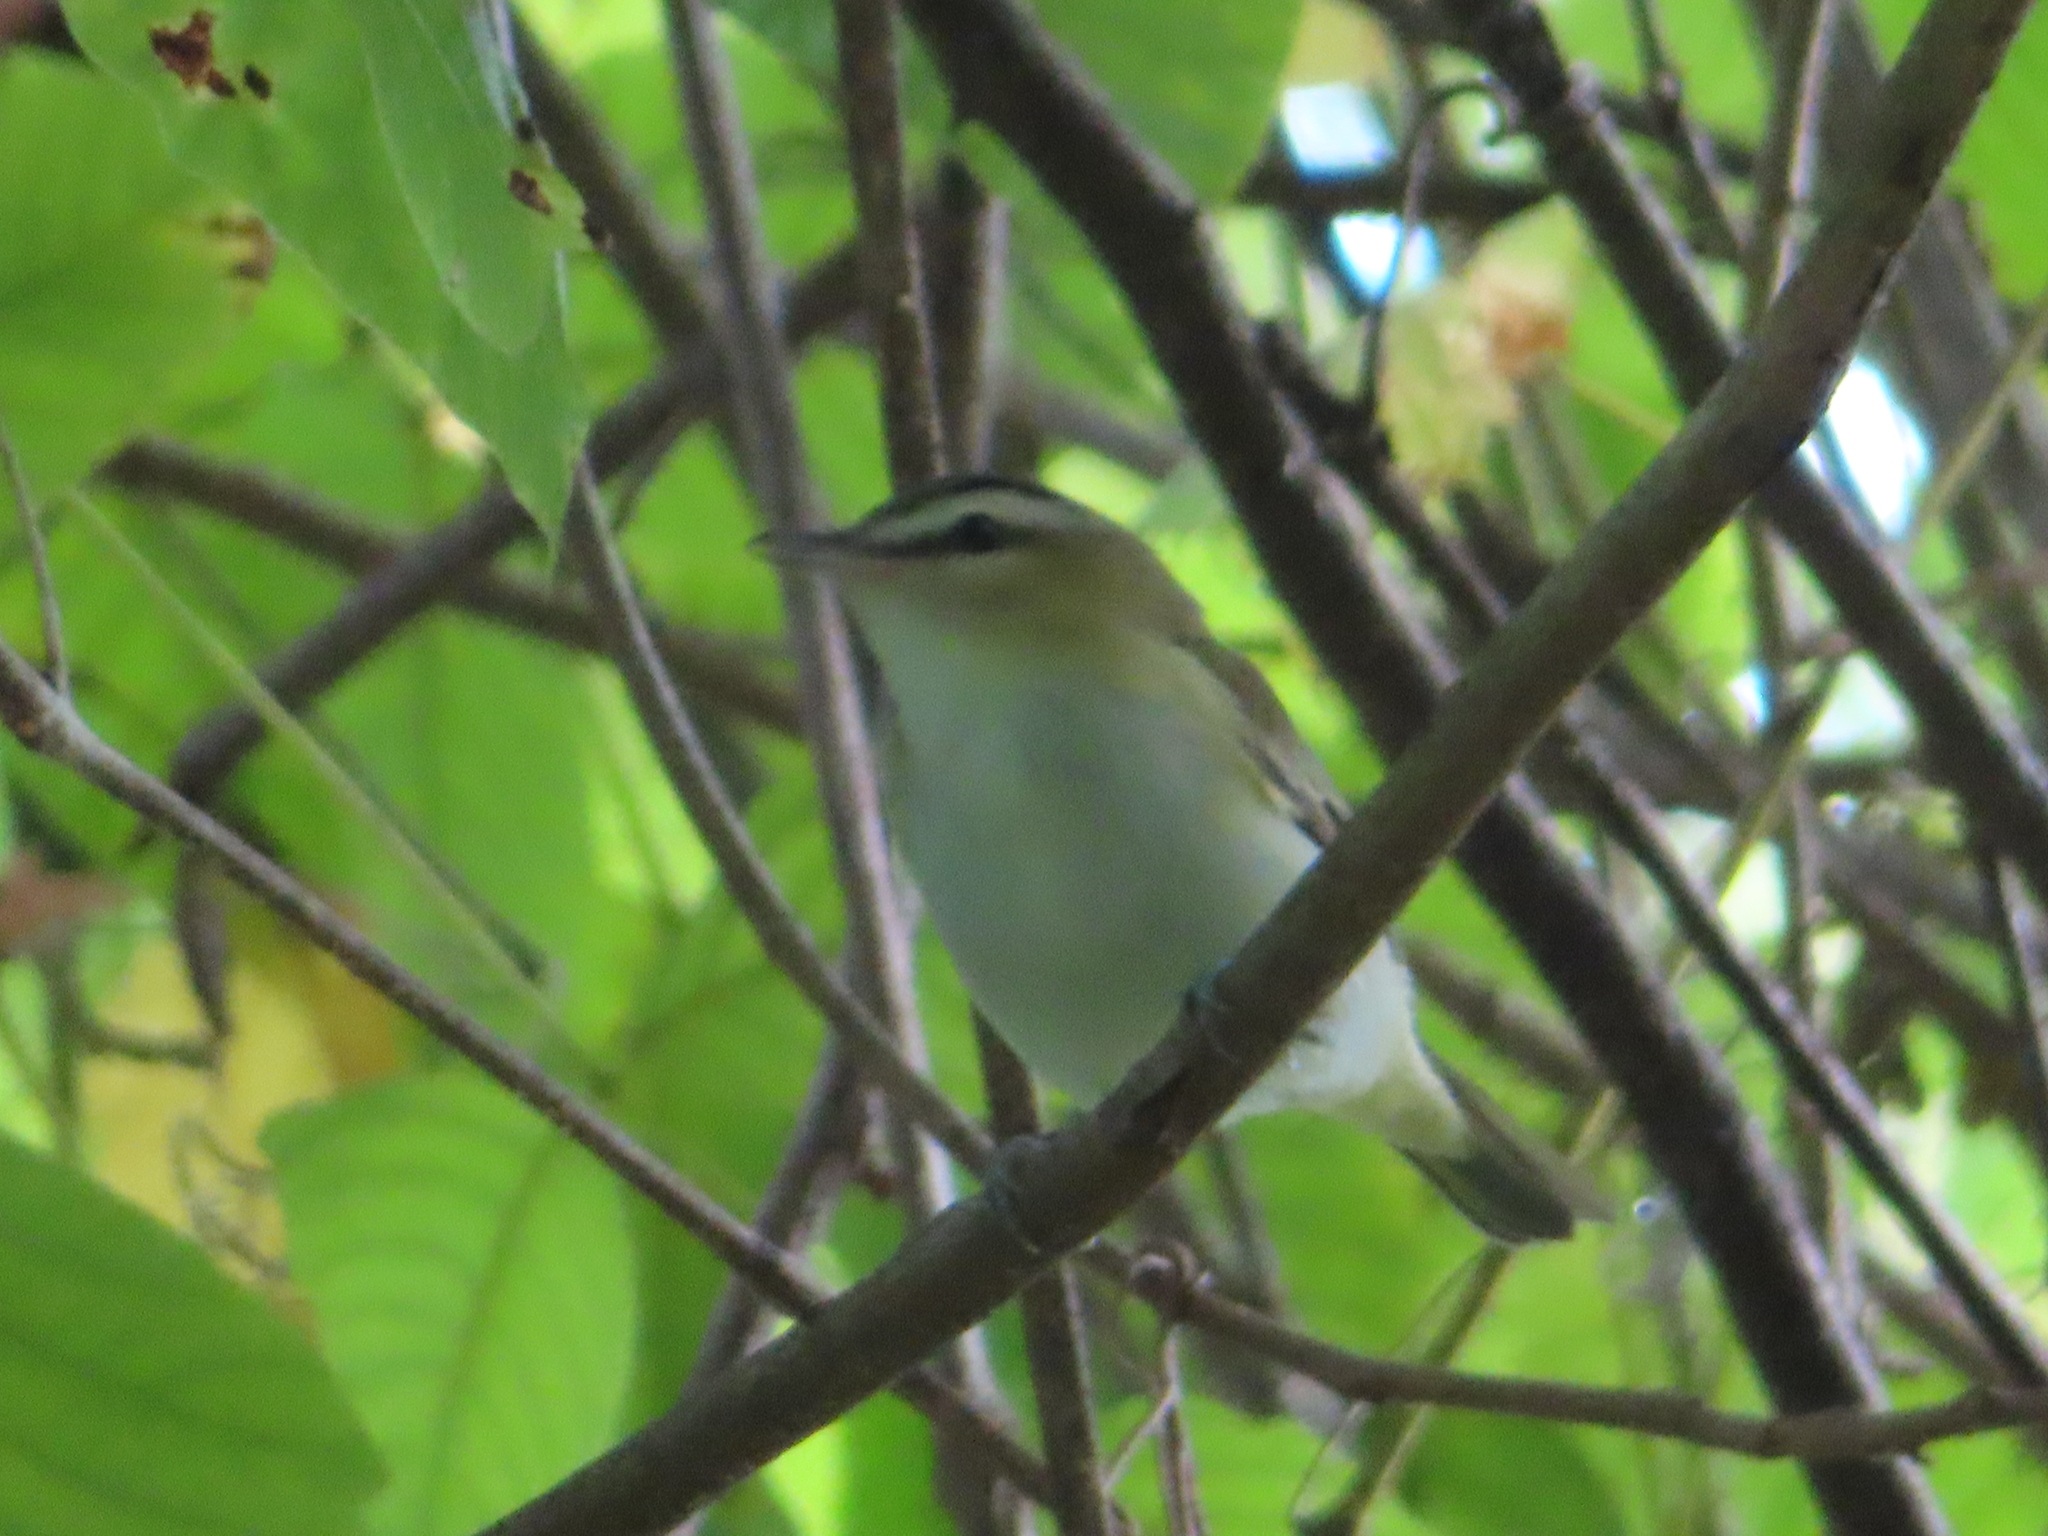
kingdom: Animalia
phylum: Chordata
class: Aves
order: Passeriformes
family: Vireonidae
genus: Vireo
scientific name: Vireo olivaceus
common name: Red-eyed vireo
